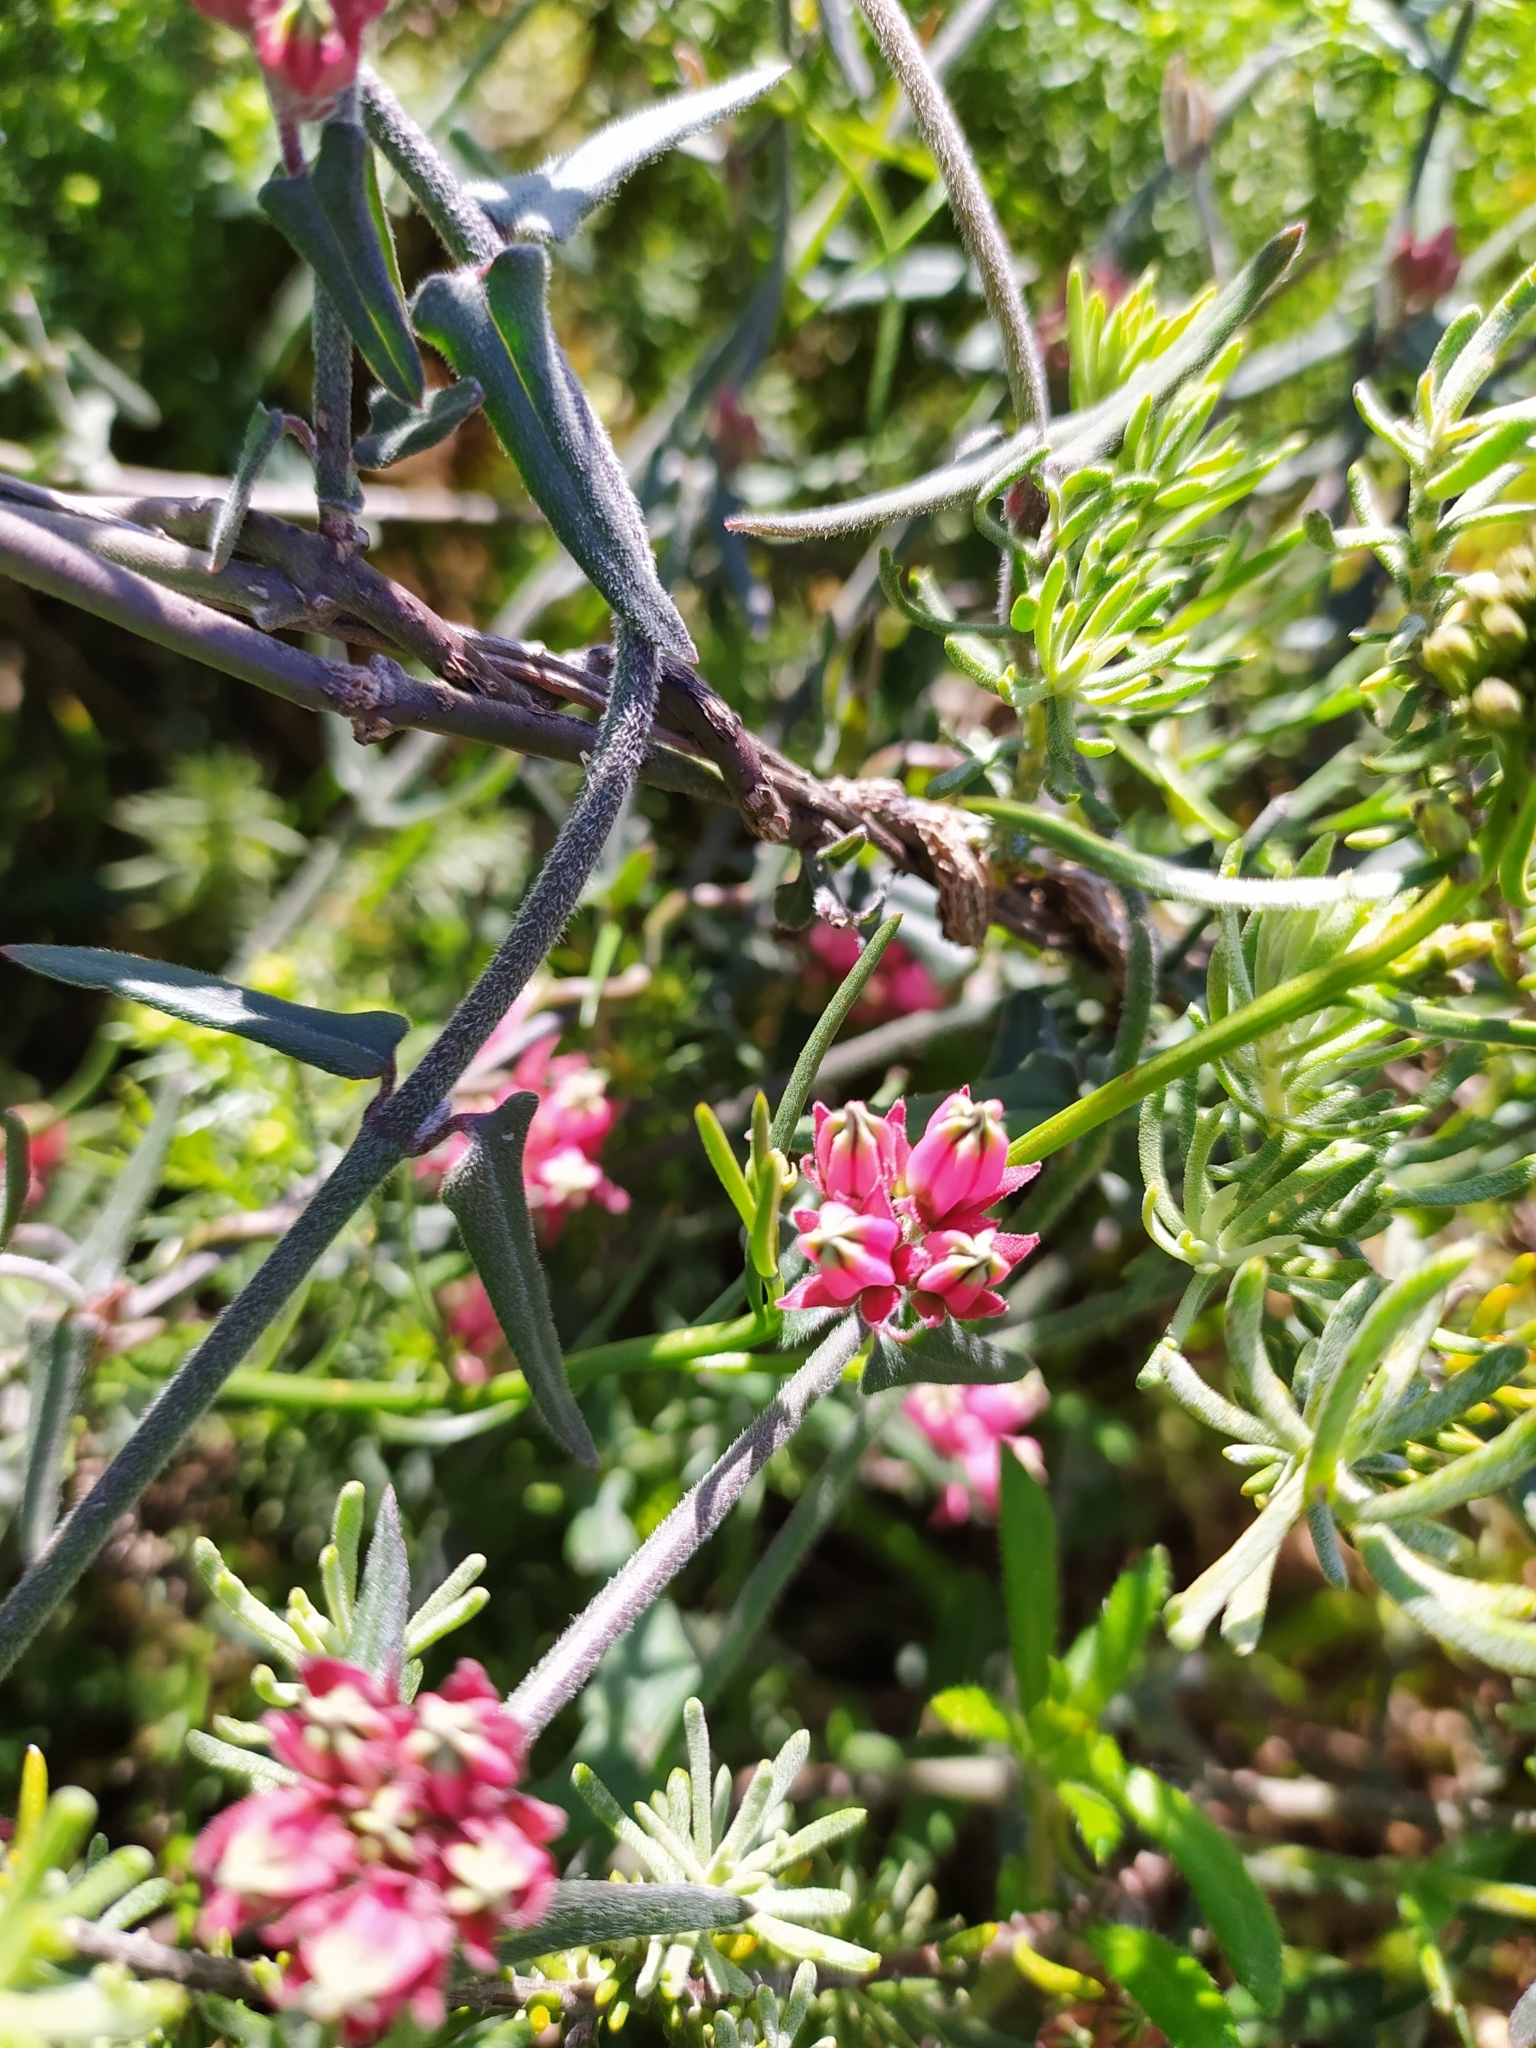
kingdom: Plantae
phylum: Tracheophyta
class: Magnoliopsida
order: Gentianales
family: Apocynaceae
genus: Microloma
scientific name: Microloma sagittatum
